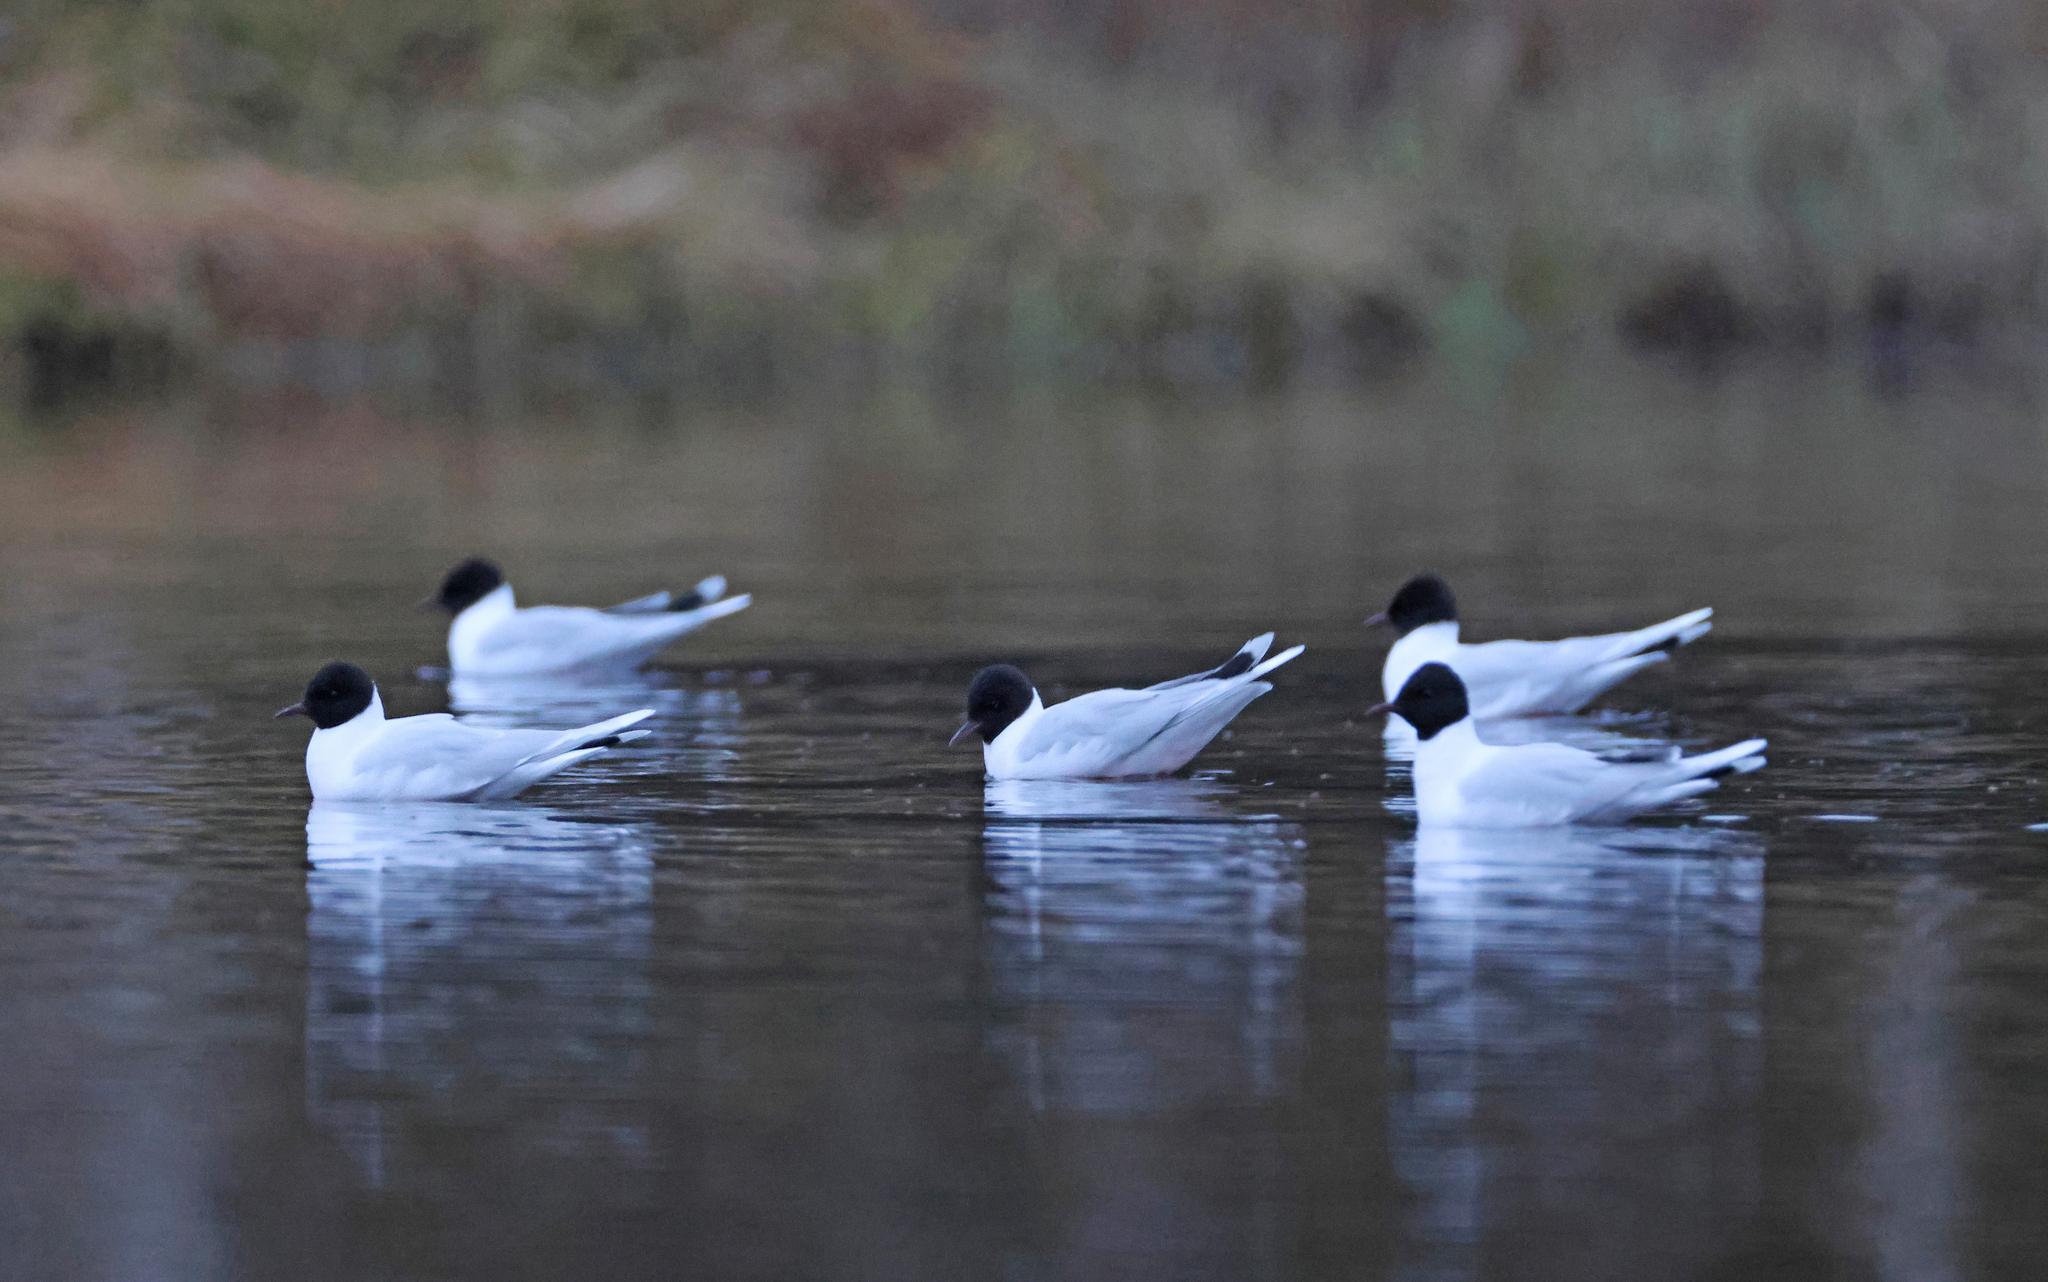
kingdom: Animalia
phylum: Chordata
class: Aves
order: Charadriiformes
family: Laridae
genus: Hydrocoloeus
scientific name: Hydrocoloeus minutus
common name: Little gull
